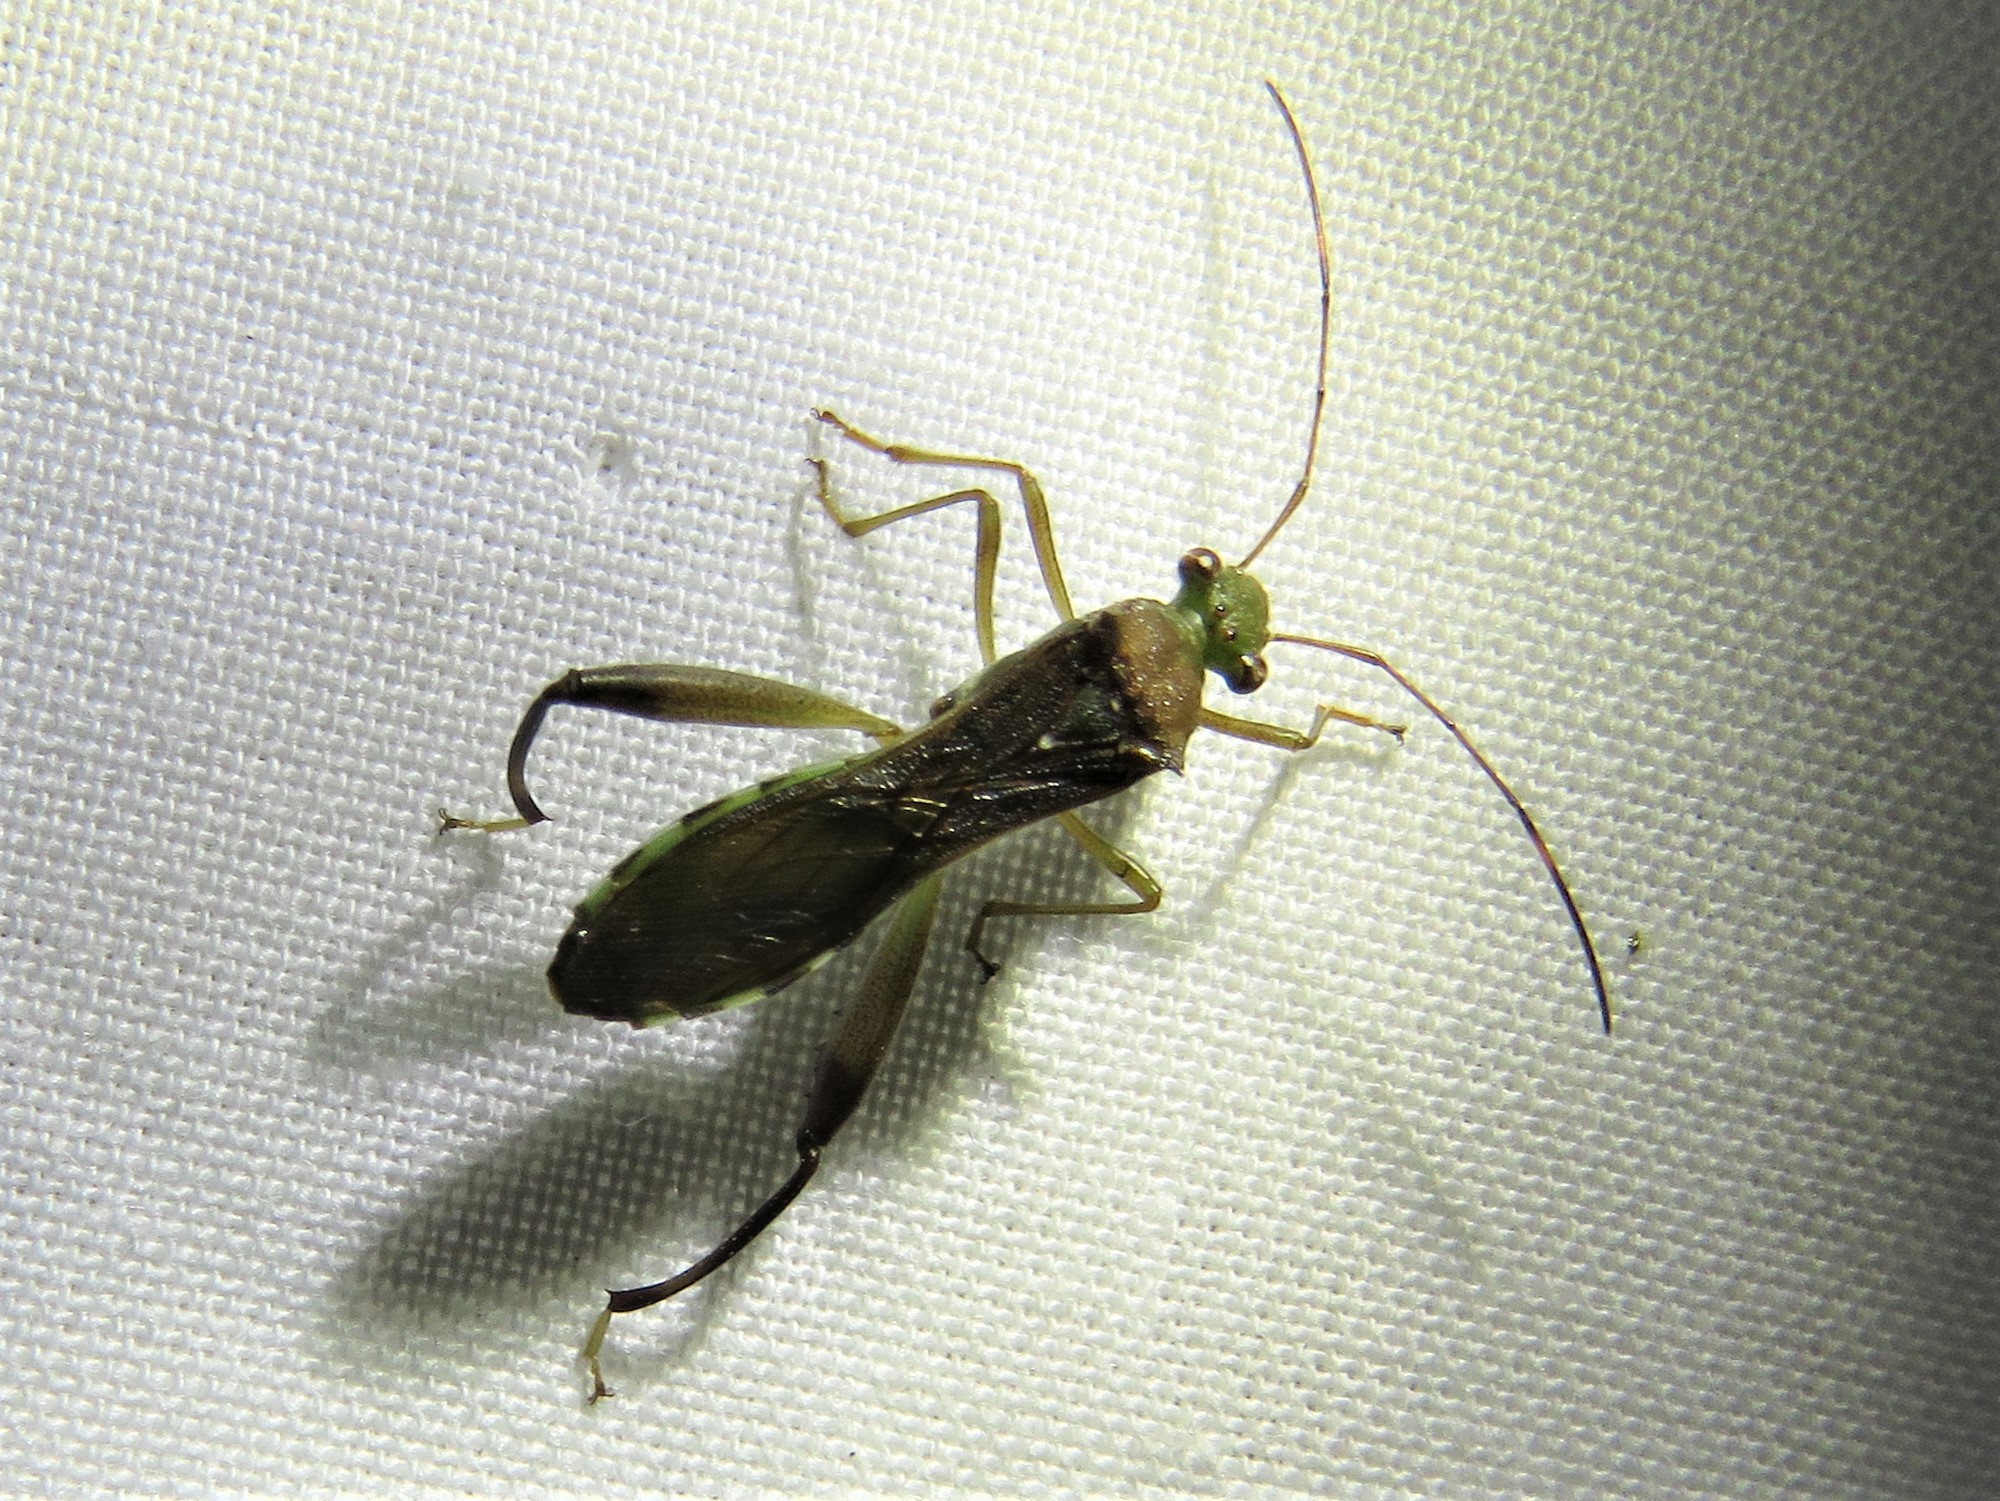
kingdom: Animalia
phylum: Arthropoda
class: Insecta
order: Hemiptera
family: Alydidae
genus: Hyalymenus
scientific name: Hyalymenus tarsatus
